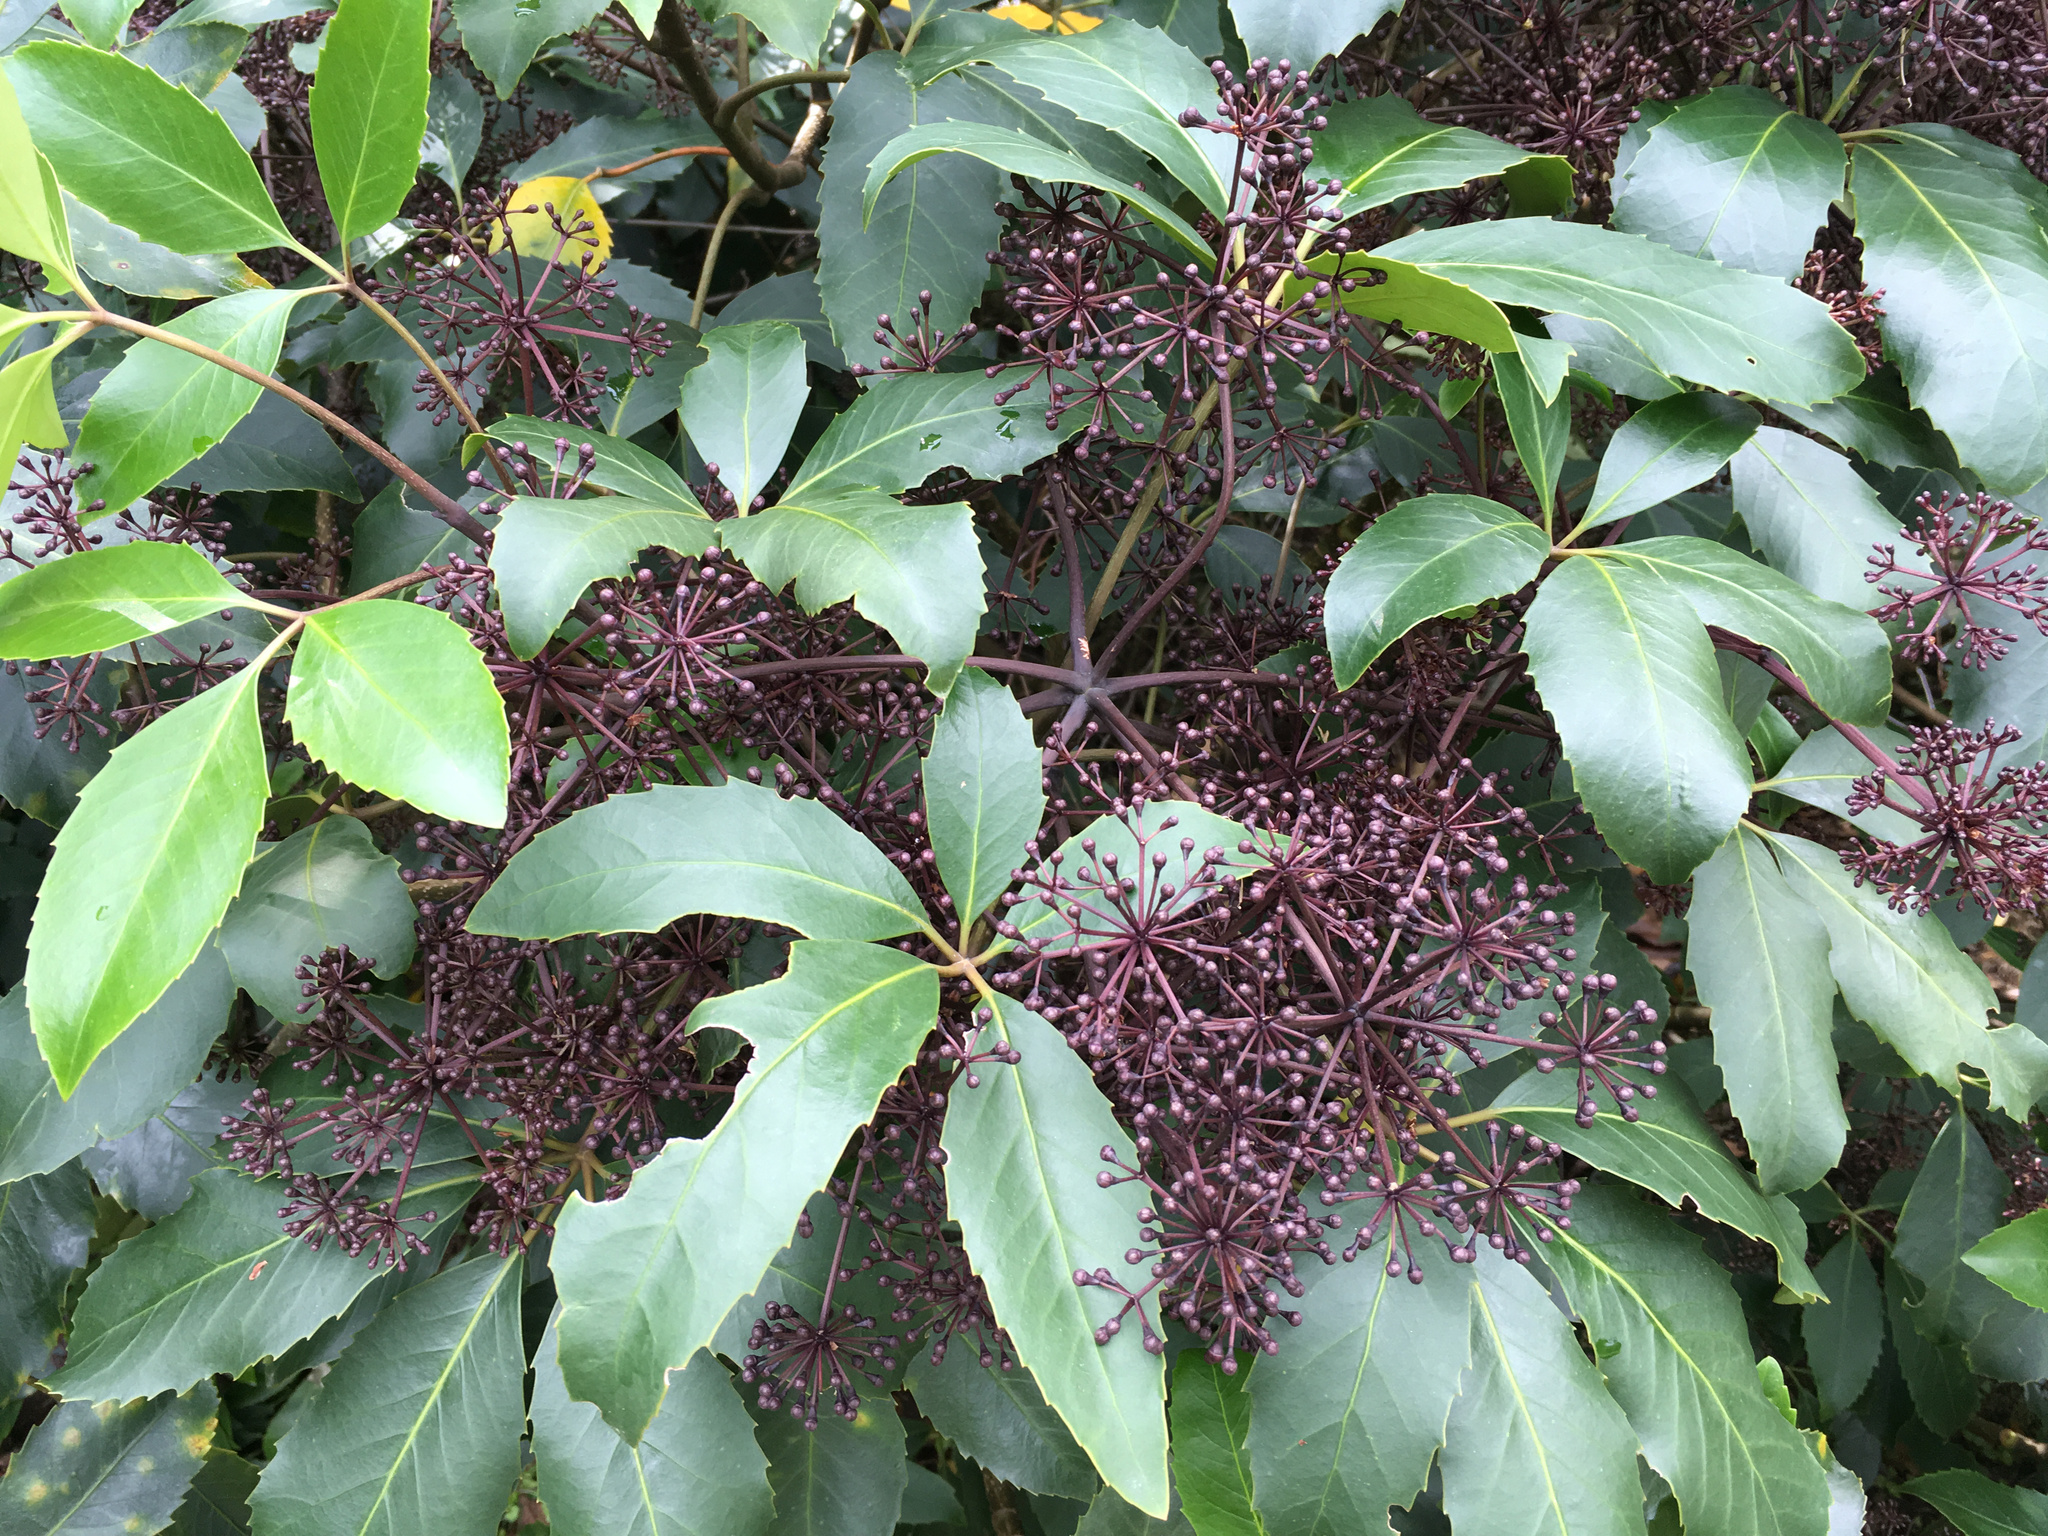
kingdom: Plantae
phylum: Tracheophyta
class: Magnoliopsida
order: Apiales
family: Araliaceae
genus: Neopanax
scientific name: Neopanax arboreus
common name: Five-fingers
